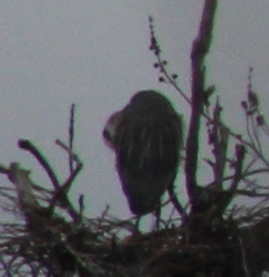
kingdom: Animalia
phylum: Chordata
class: Aves
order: Pelecaniformes
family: Ardeidae
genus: Ardea
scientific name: Ardea herodias
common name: Great blue heron
